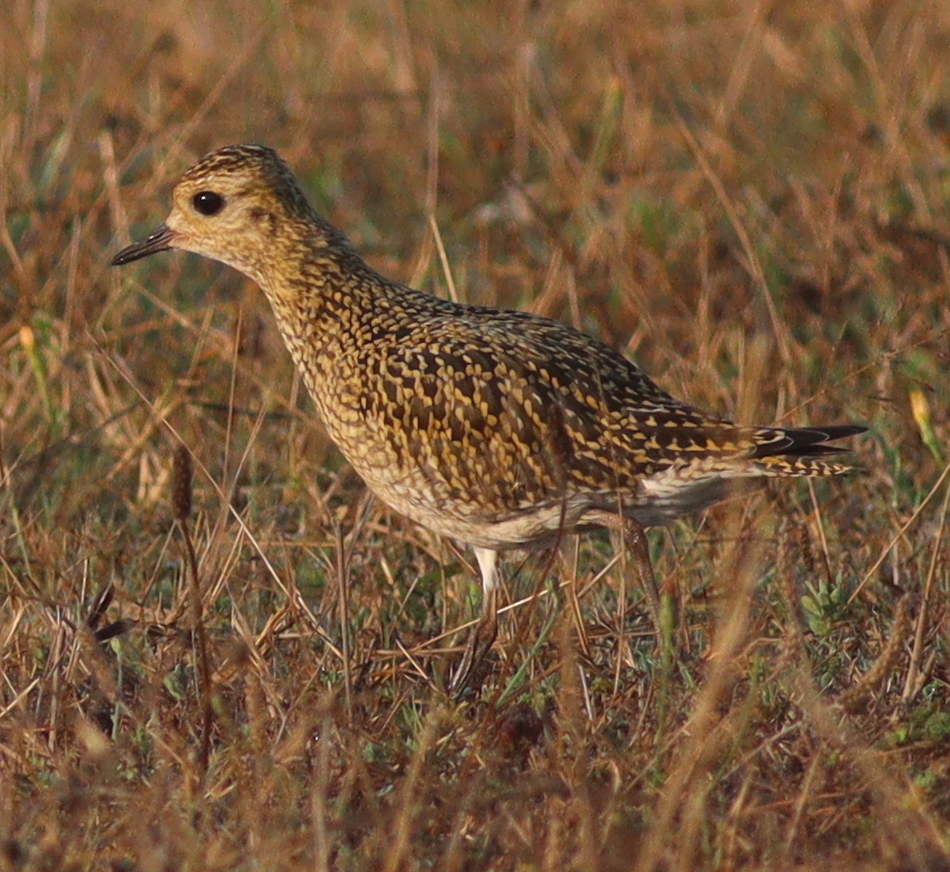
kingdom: Animalia
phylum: Chordata
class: Aves
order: Charadriiformes
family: Charadriidae
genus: Pluvialis
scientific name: Pluvialis apricaria
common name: European golden plover
